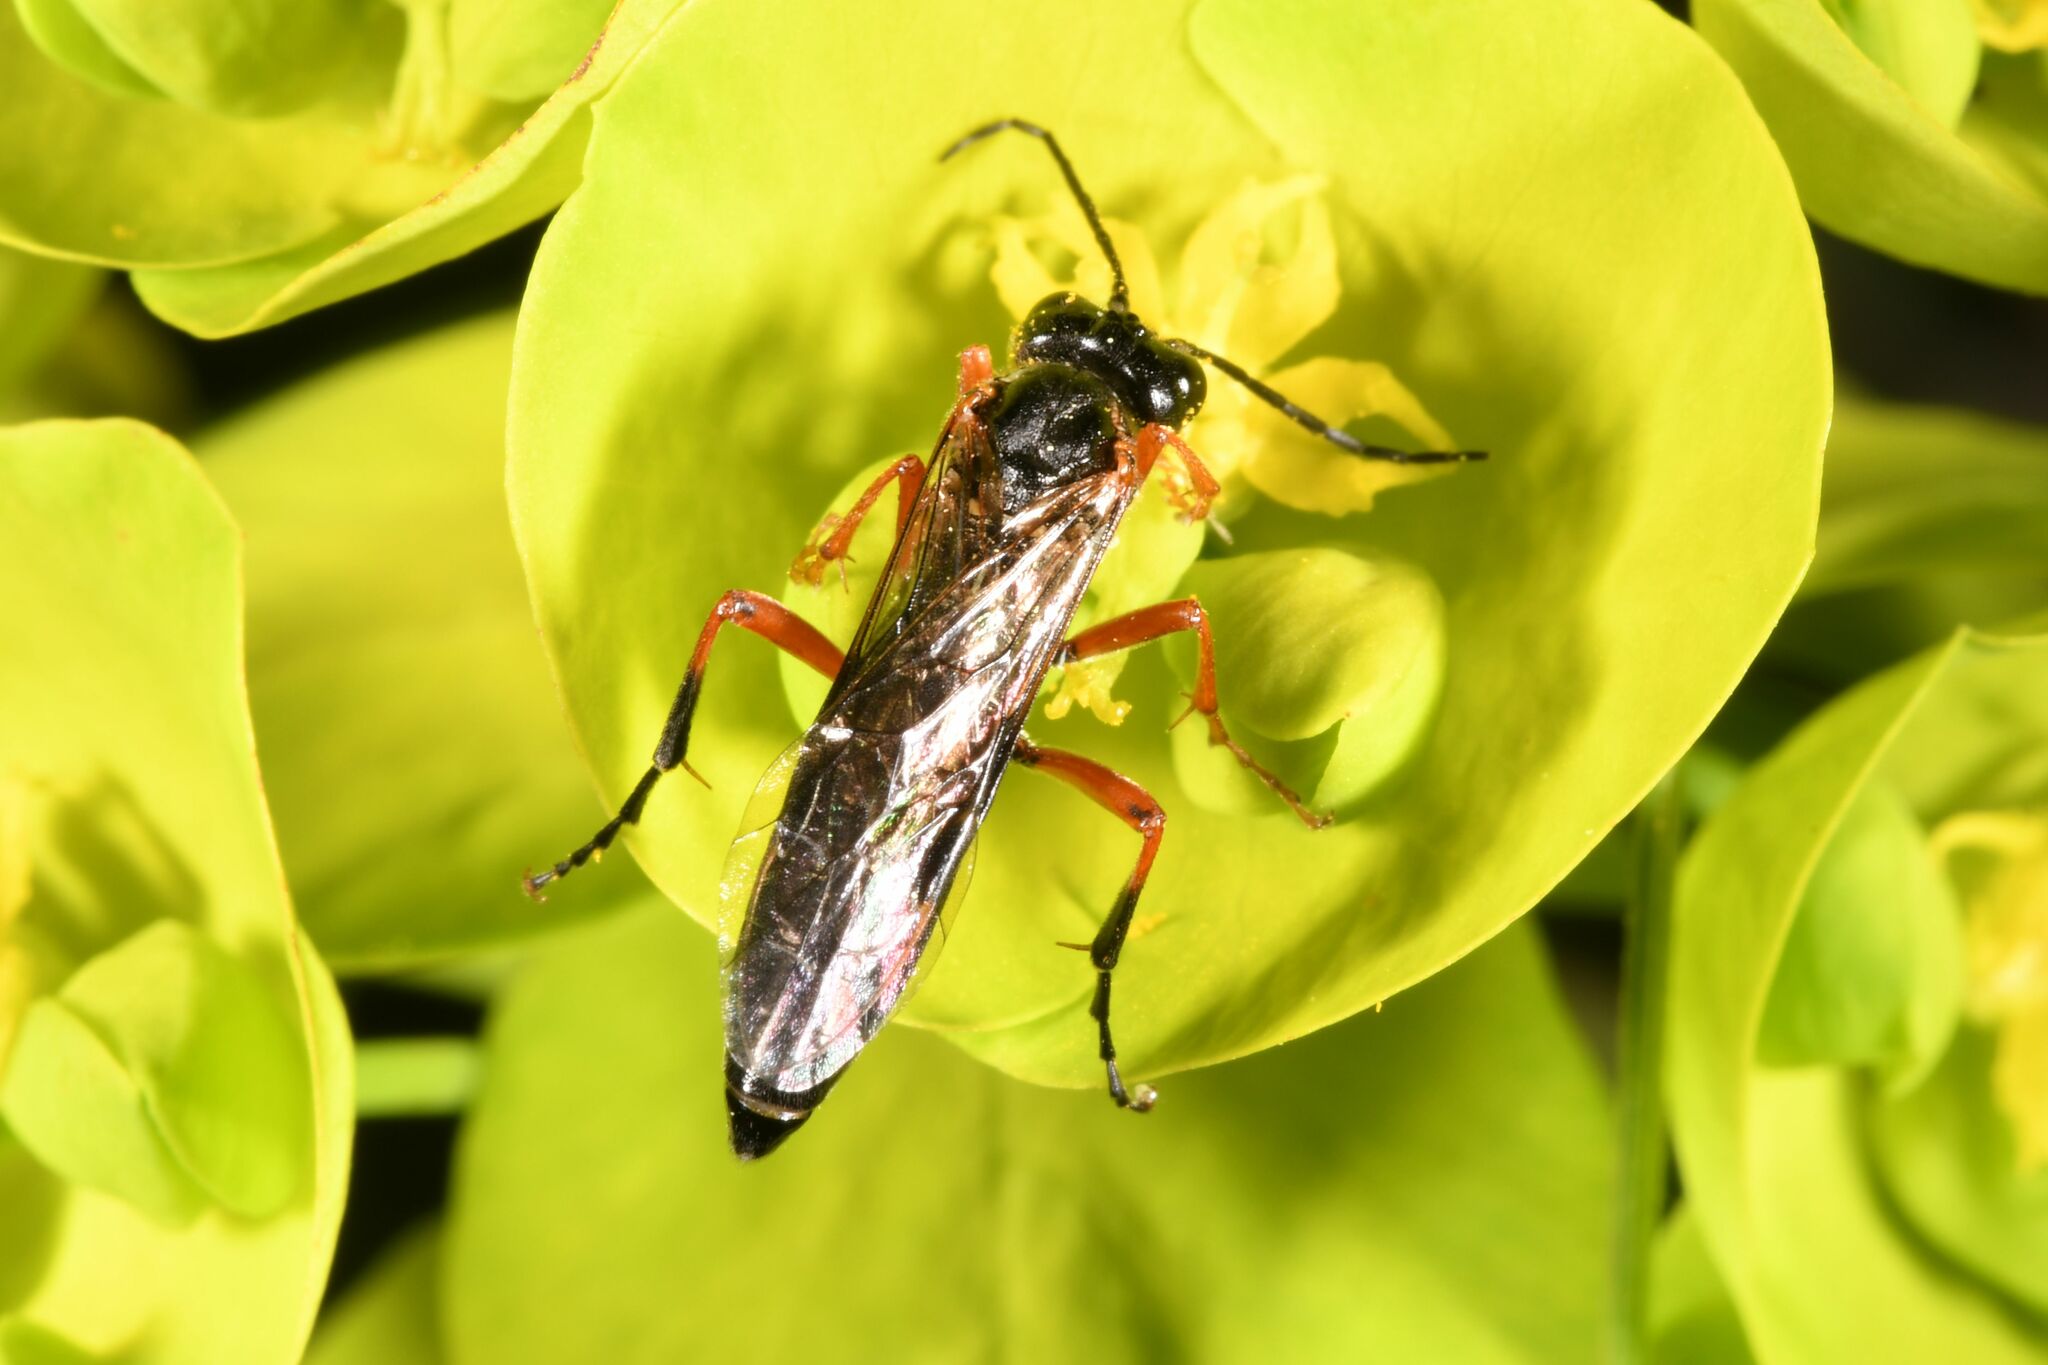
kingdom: Animalia
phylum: Arthropoda
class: Insecta
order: Hymenoptera
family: Tenthredinidae
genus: Tenthredo
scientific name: Tenthredo atra
